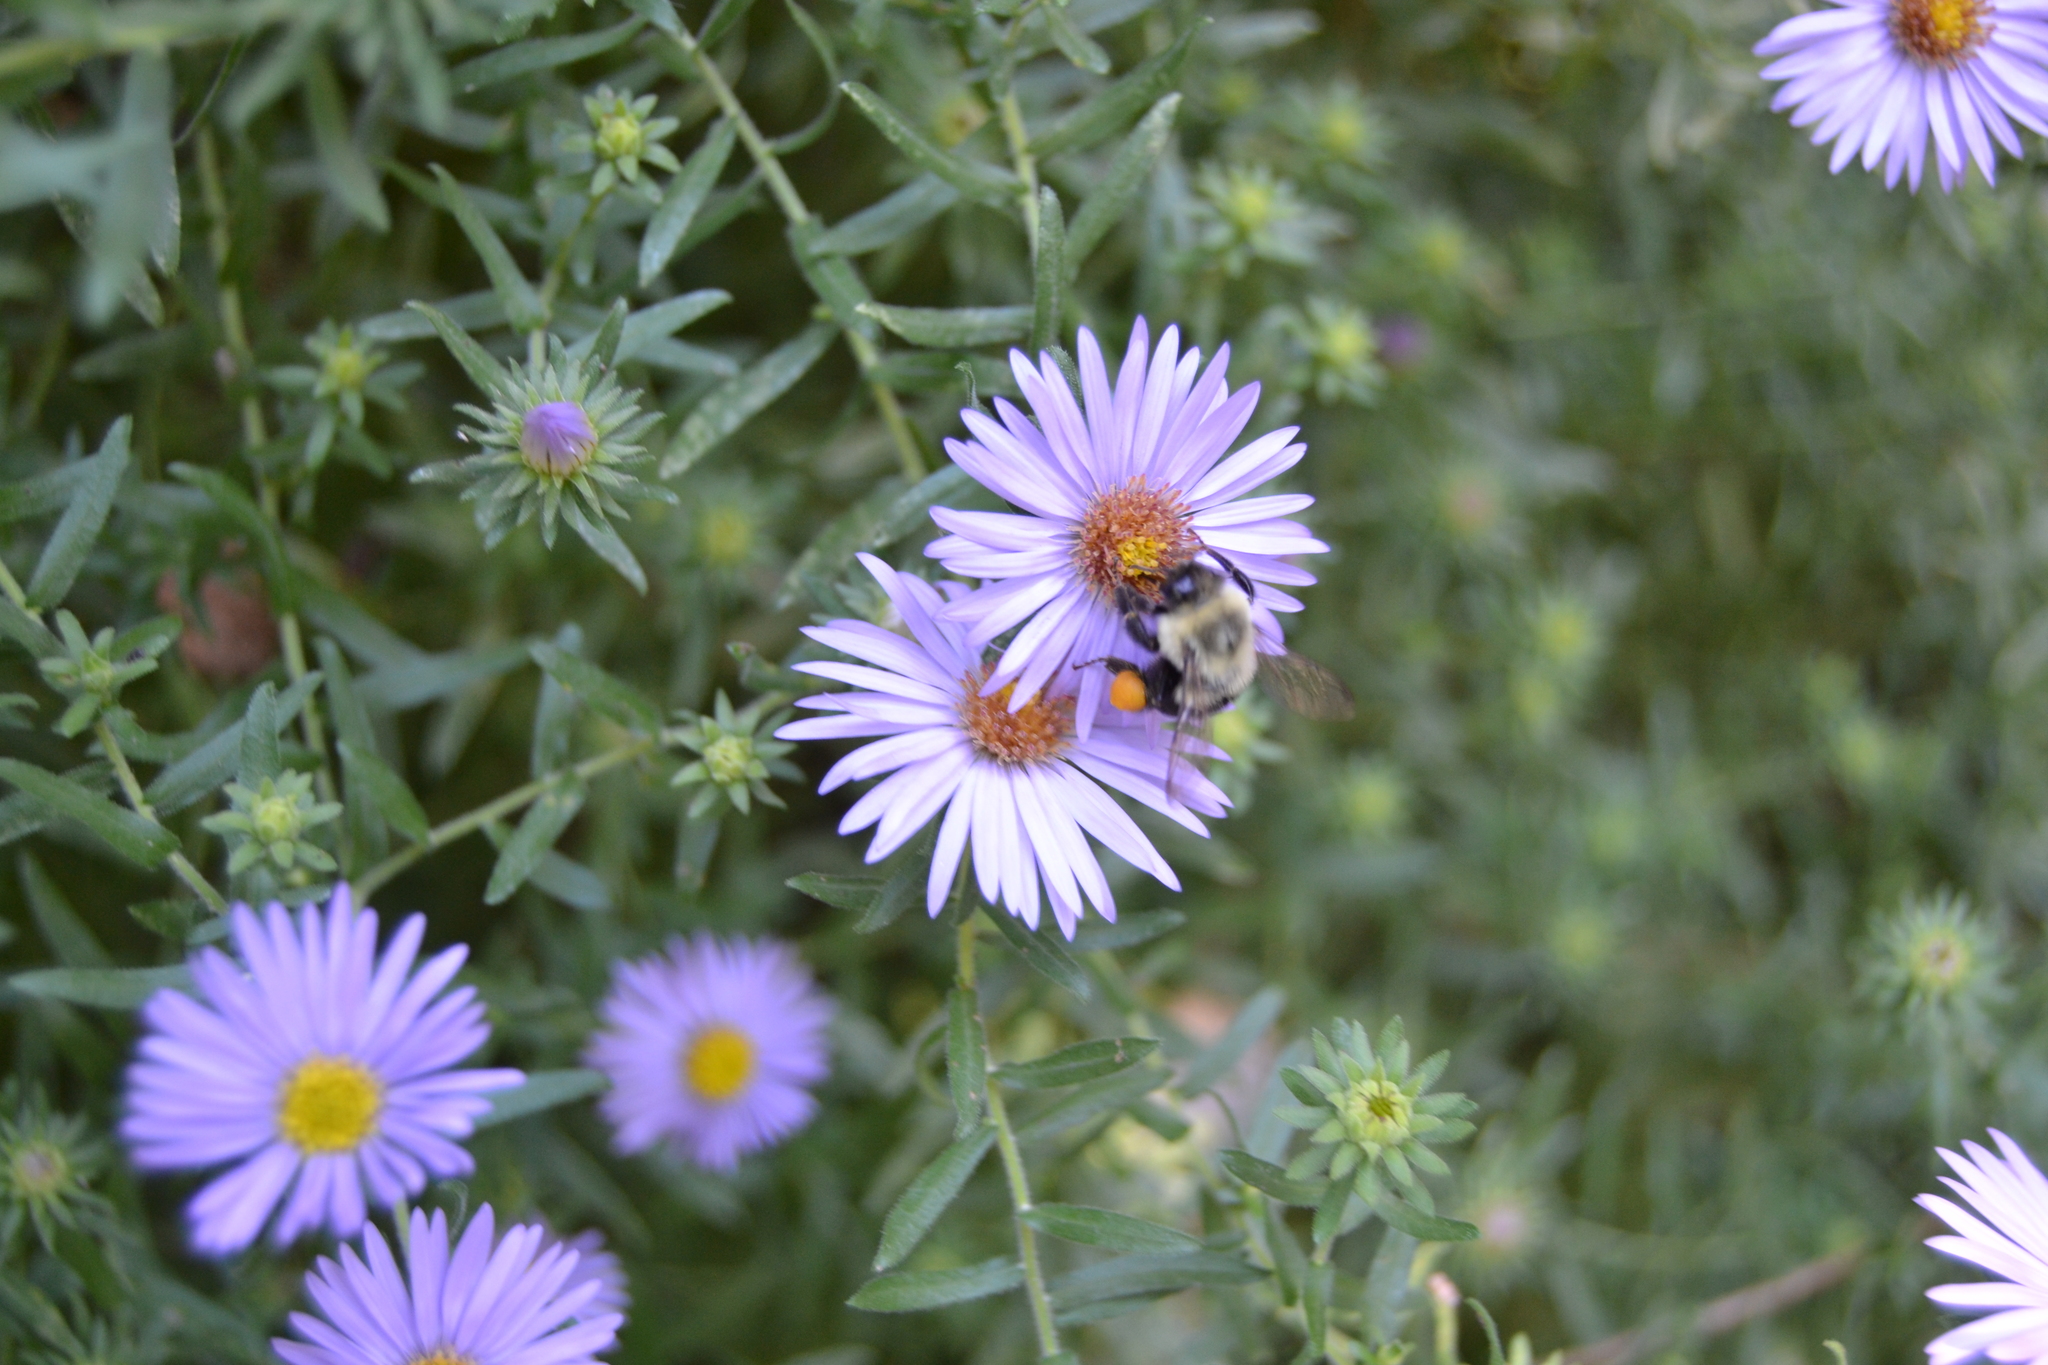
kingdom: Animalia
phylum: Arthropoda
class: Insecta
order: Hymenoptera
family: Apidae
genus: Bombus
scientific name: Bombus impatiens
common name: Common eastern bumble bee
